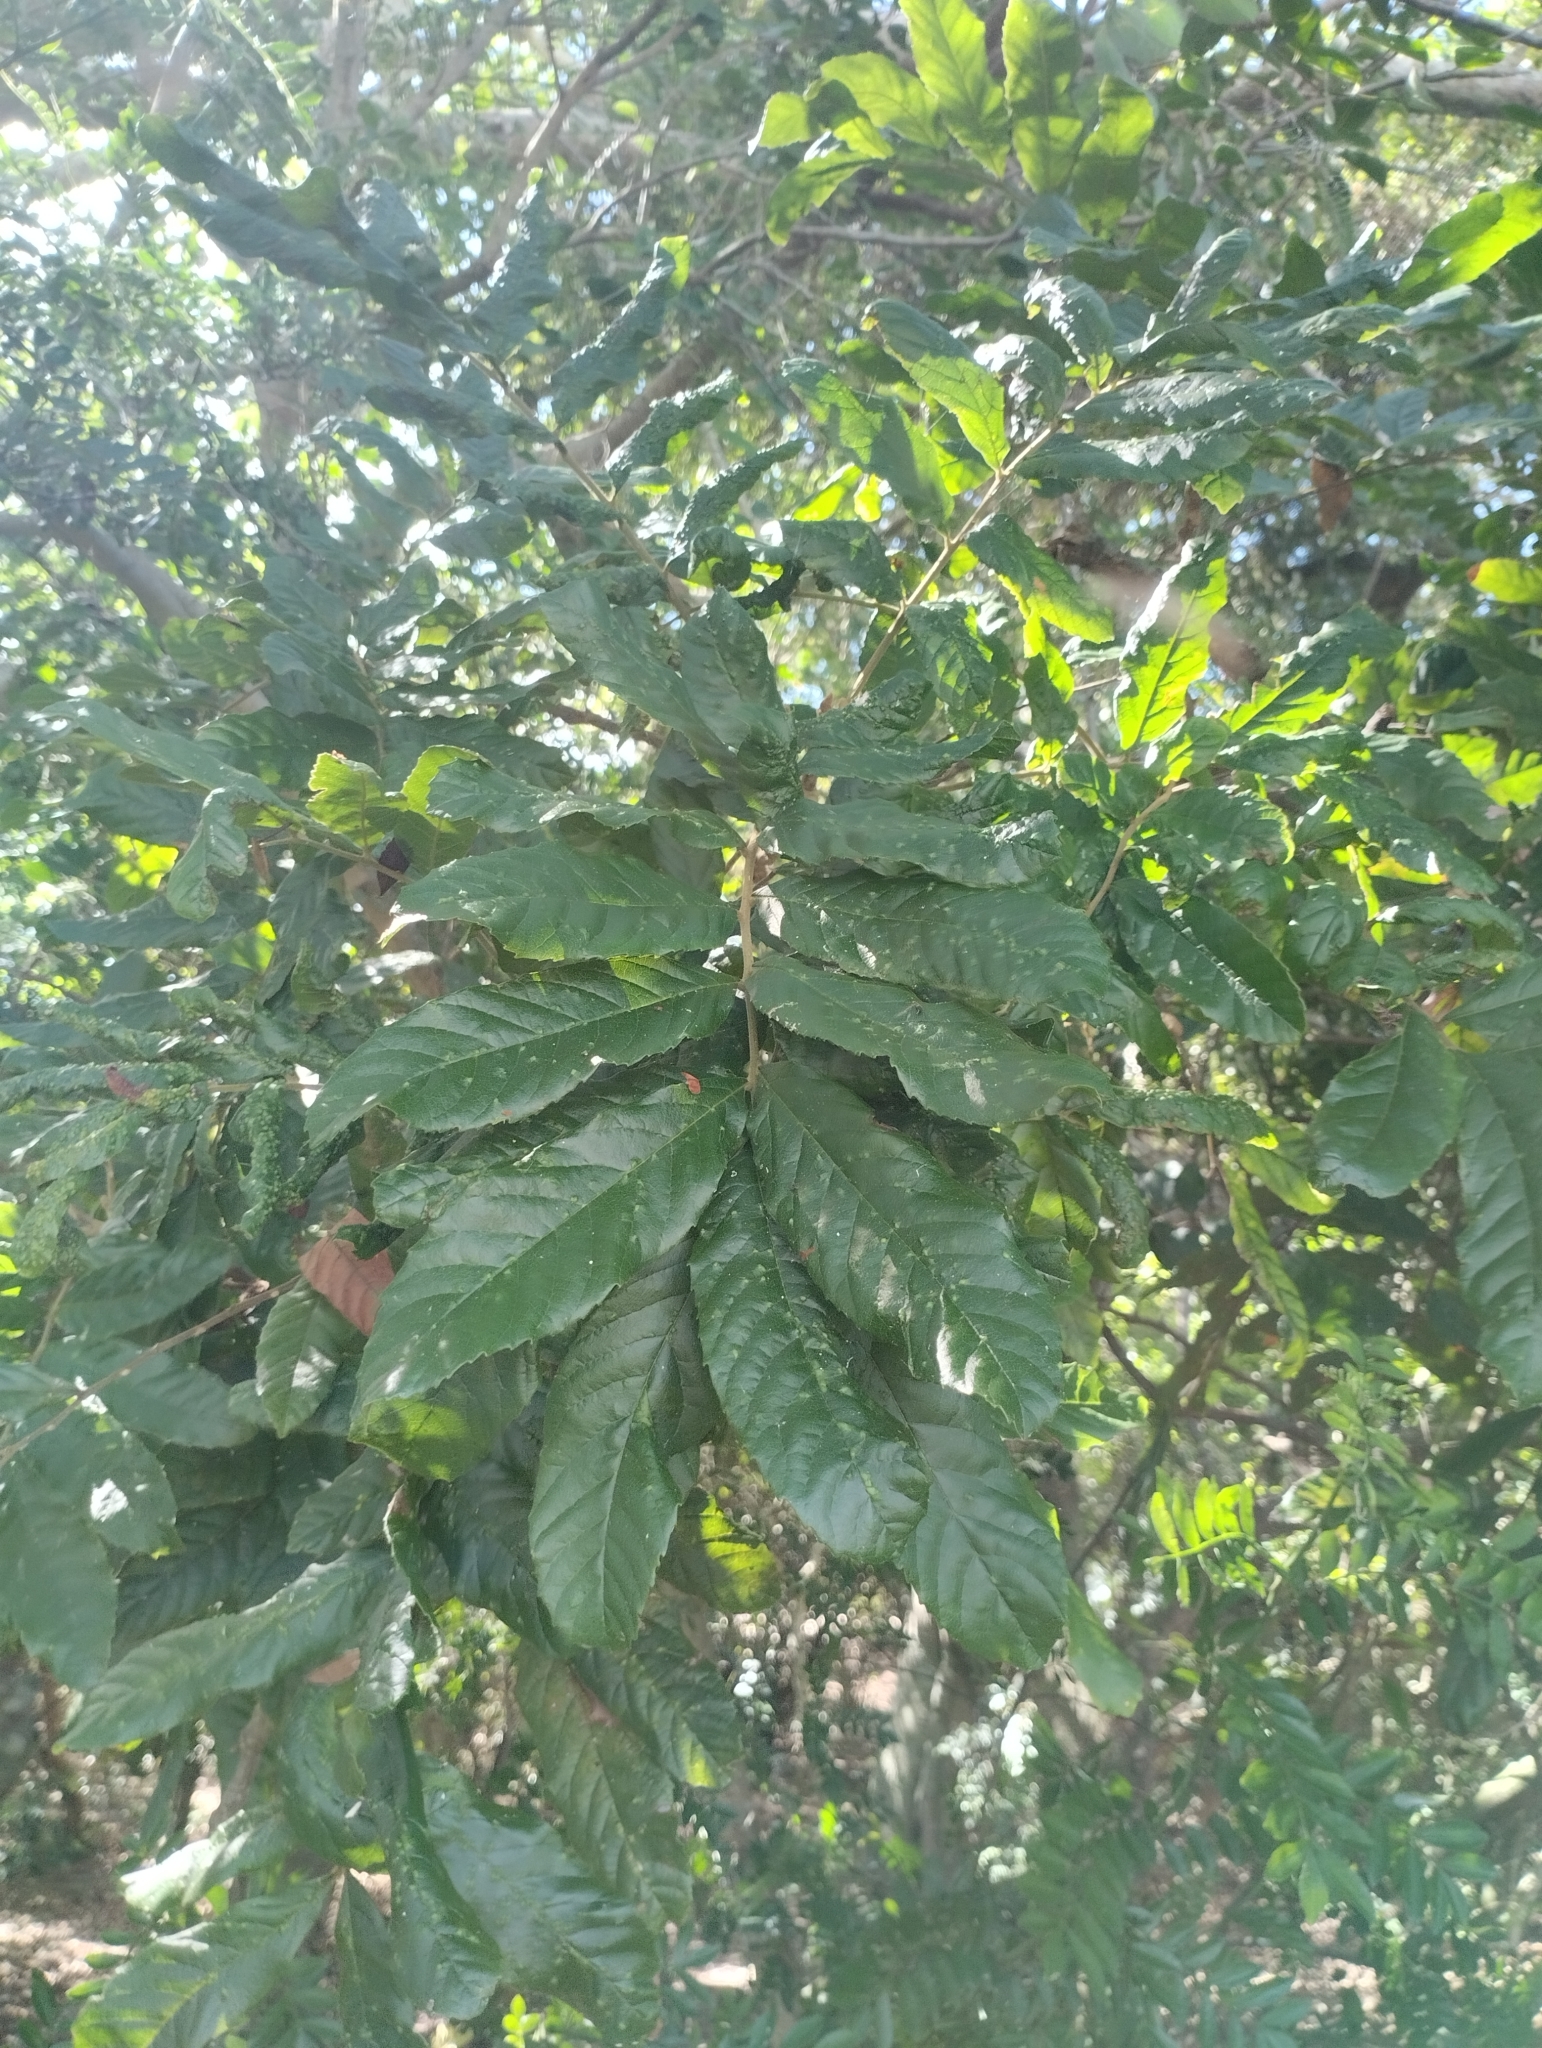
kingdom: Plantae
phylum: Tracheophyta
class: Magnoliopsida
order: Sapindales
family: Sapindaceae
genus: Cupania
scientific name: Cupania vernalis
